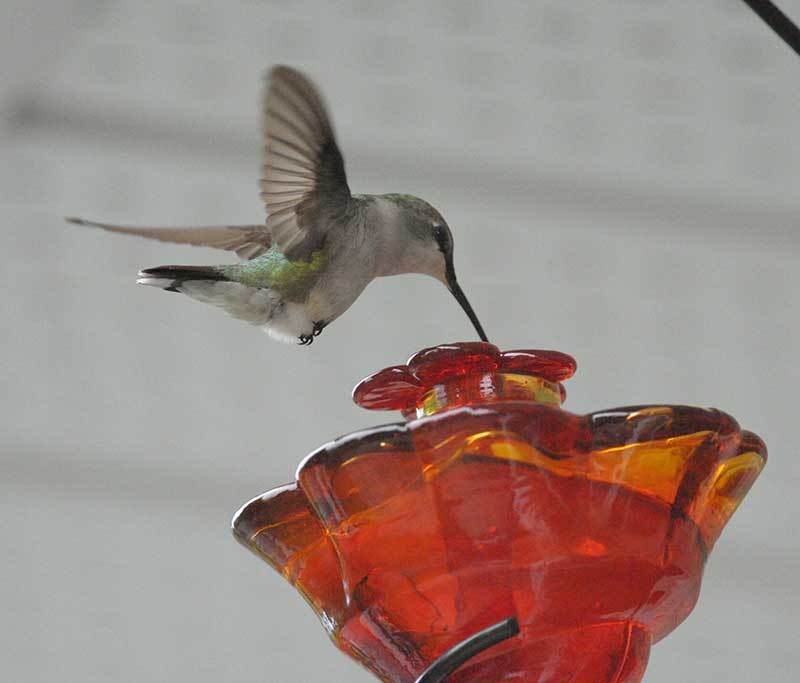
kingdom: Animalia
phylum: Chordata
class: Aves
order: Apodiformes
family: Trochilidae
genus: Archilochus
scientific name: Archilochus colubris
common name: Ruby-throated hummingbird
